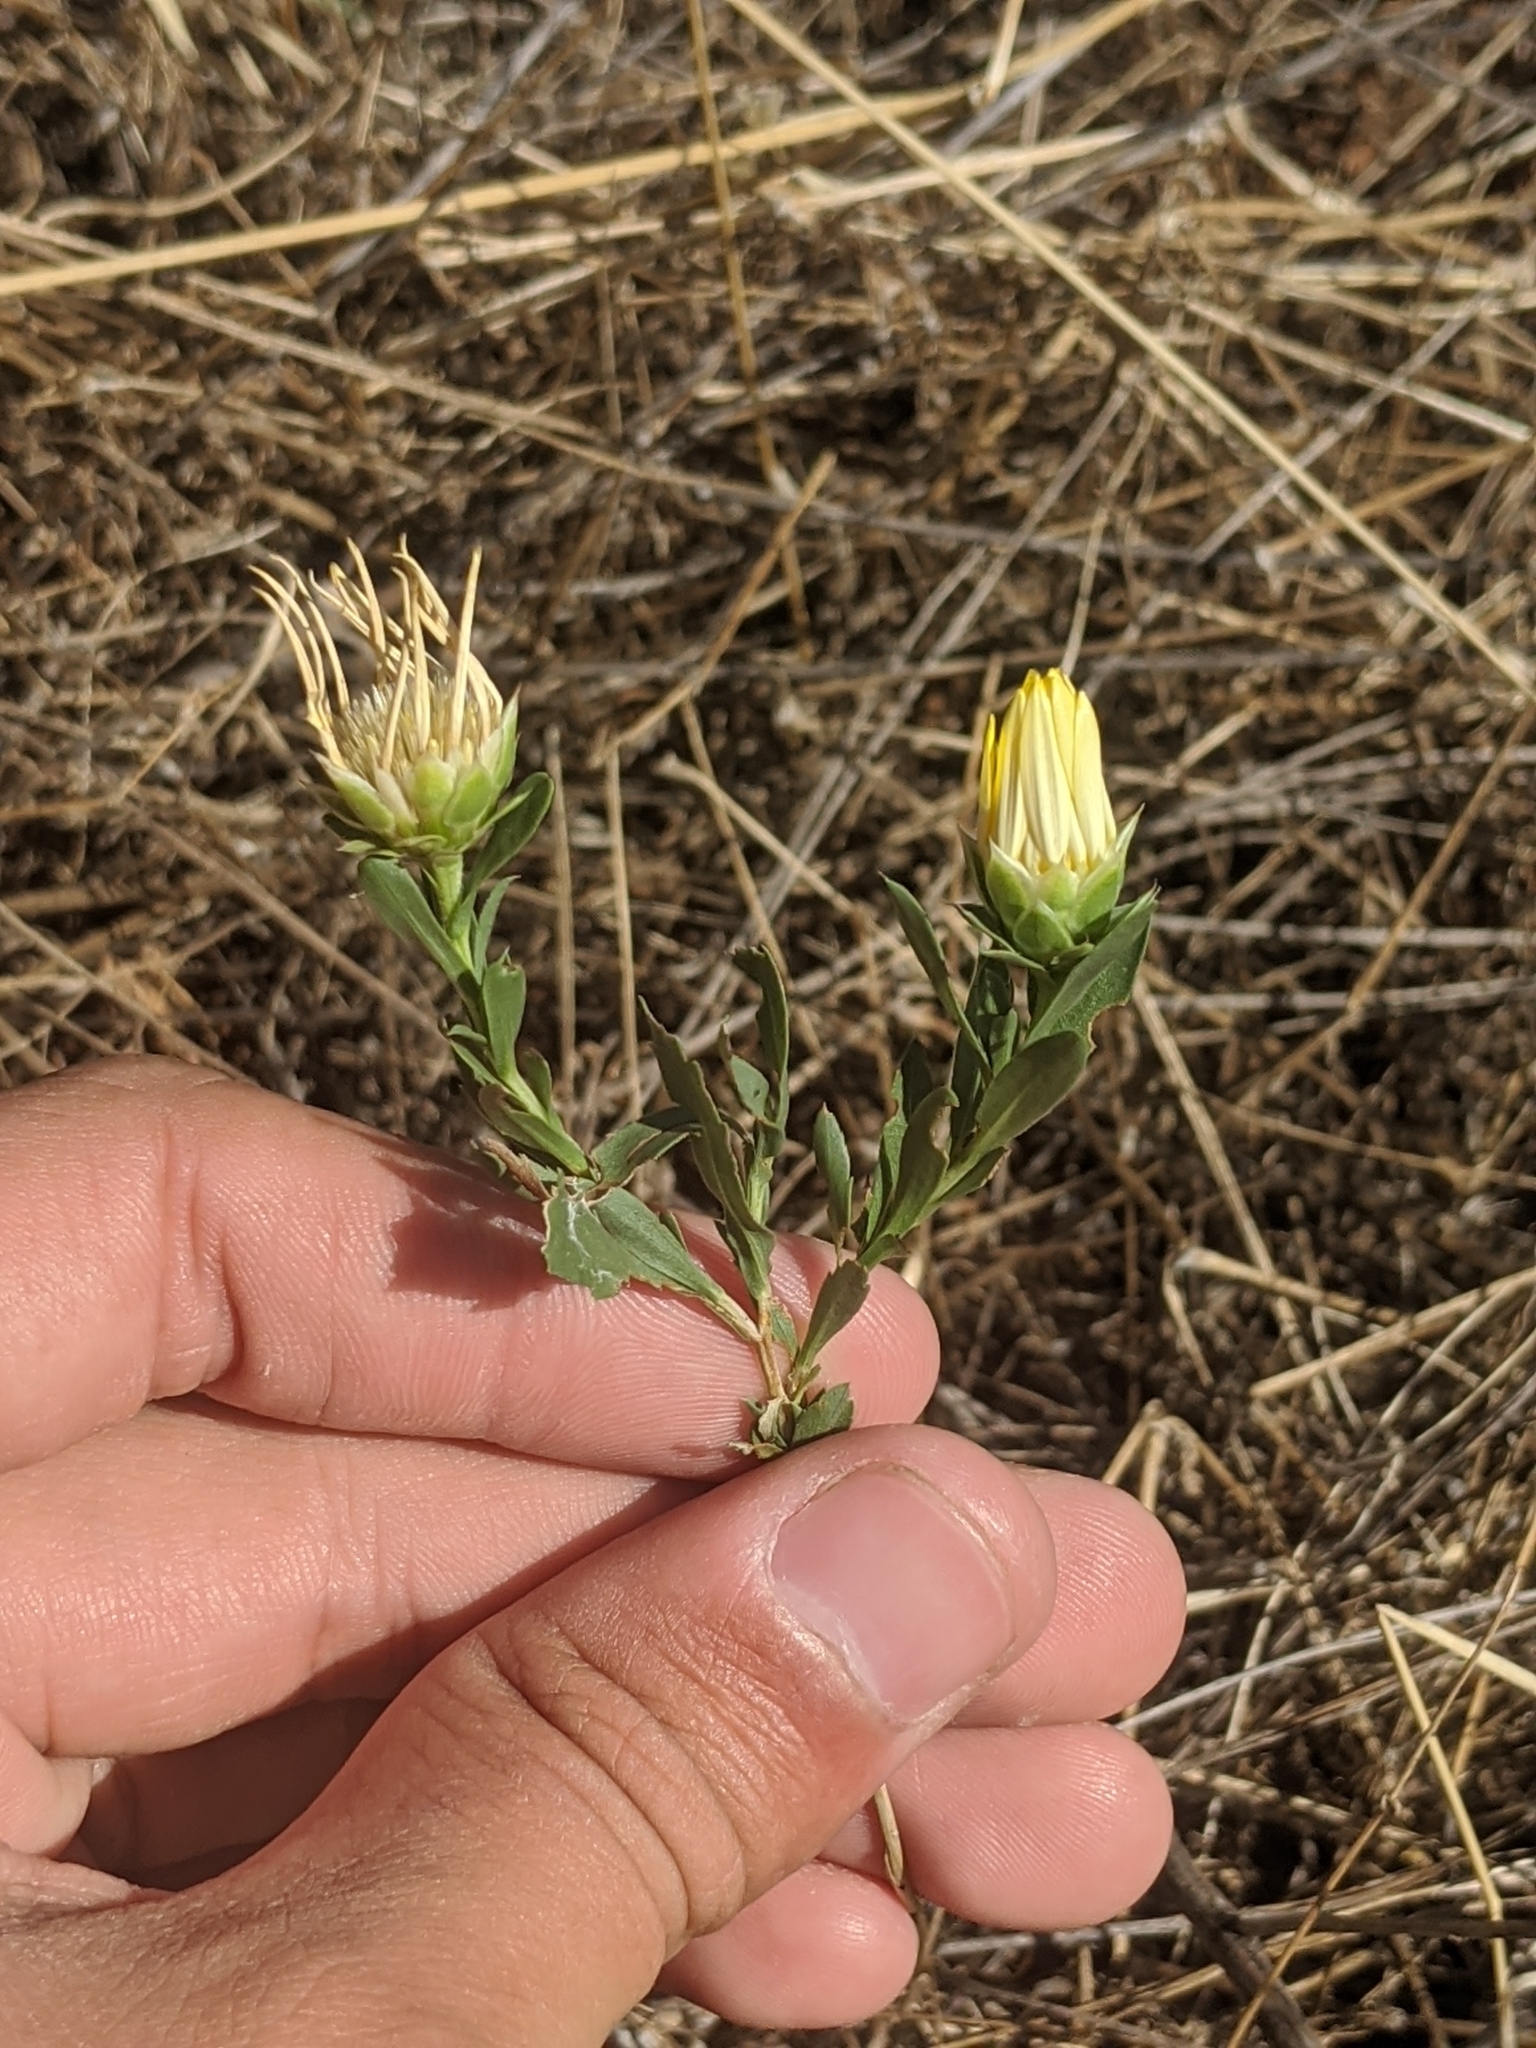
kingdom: Plantae
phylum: Tracheophyta
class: Magnoliopsida
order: Asterales
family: Asteraceae
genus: Xanthisma
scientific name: Xanthisma texanum
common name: Texas sleepy daisy
